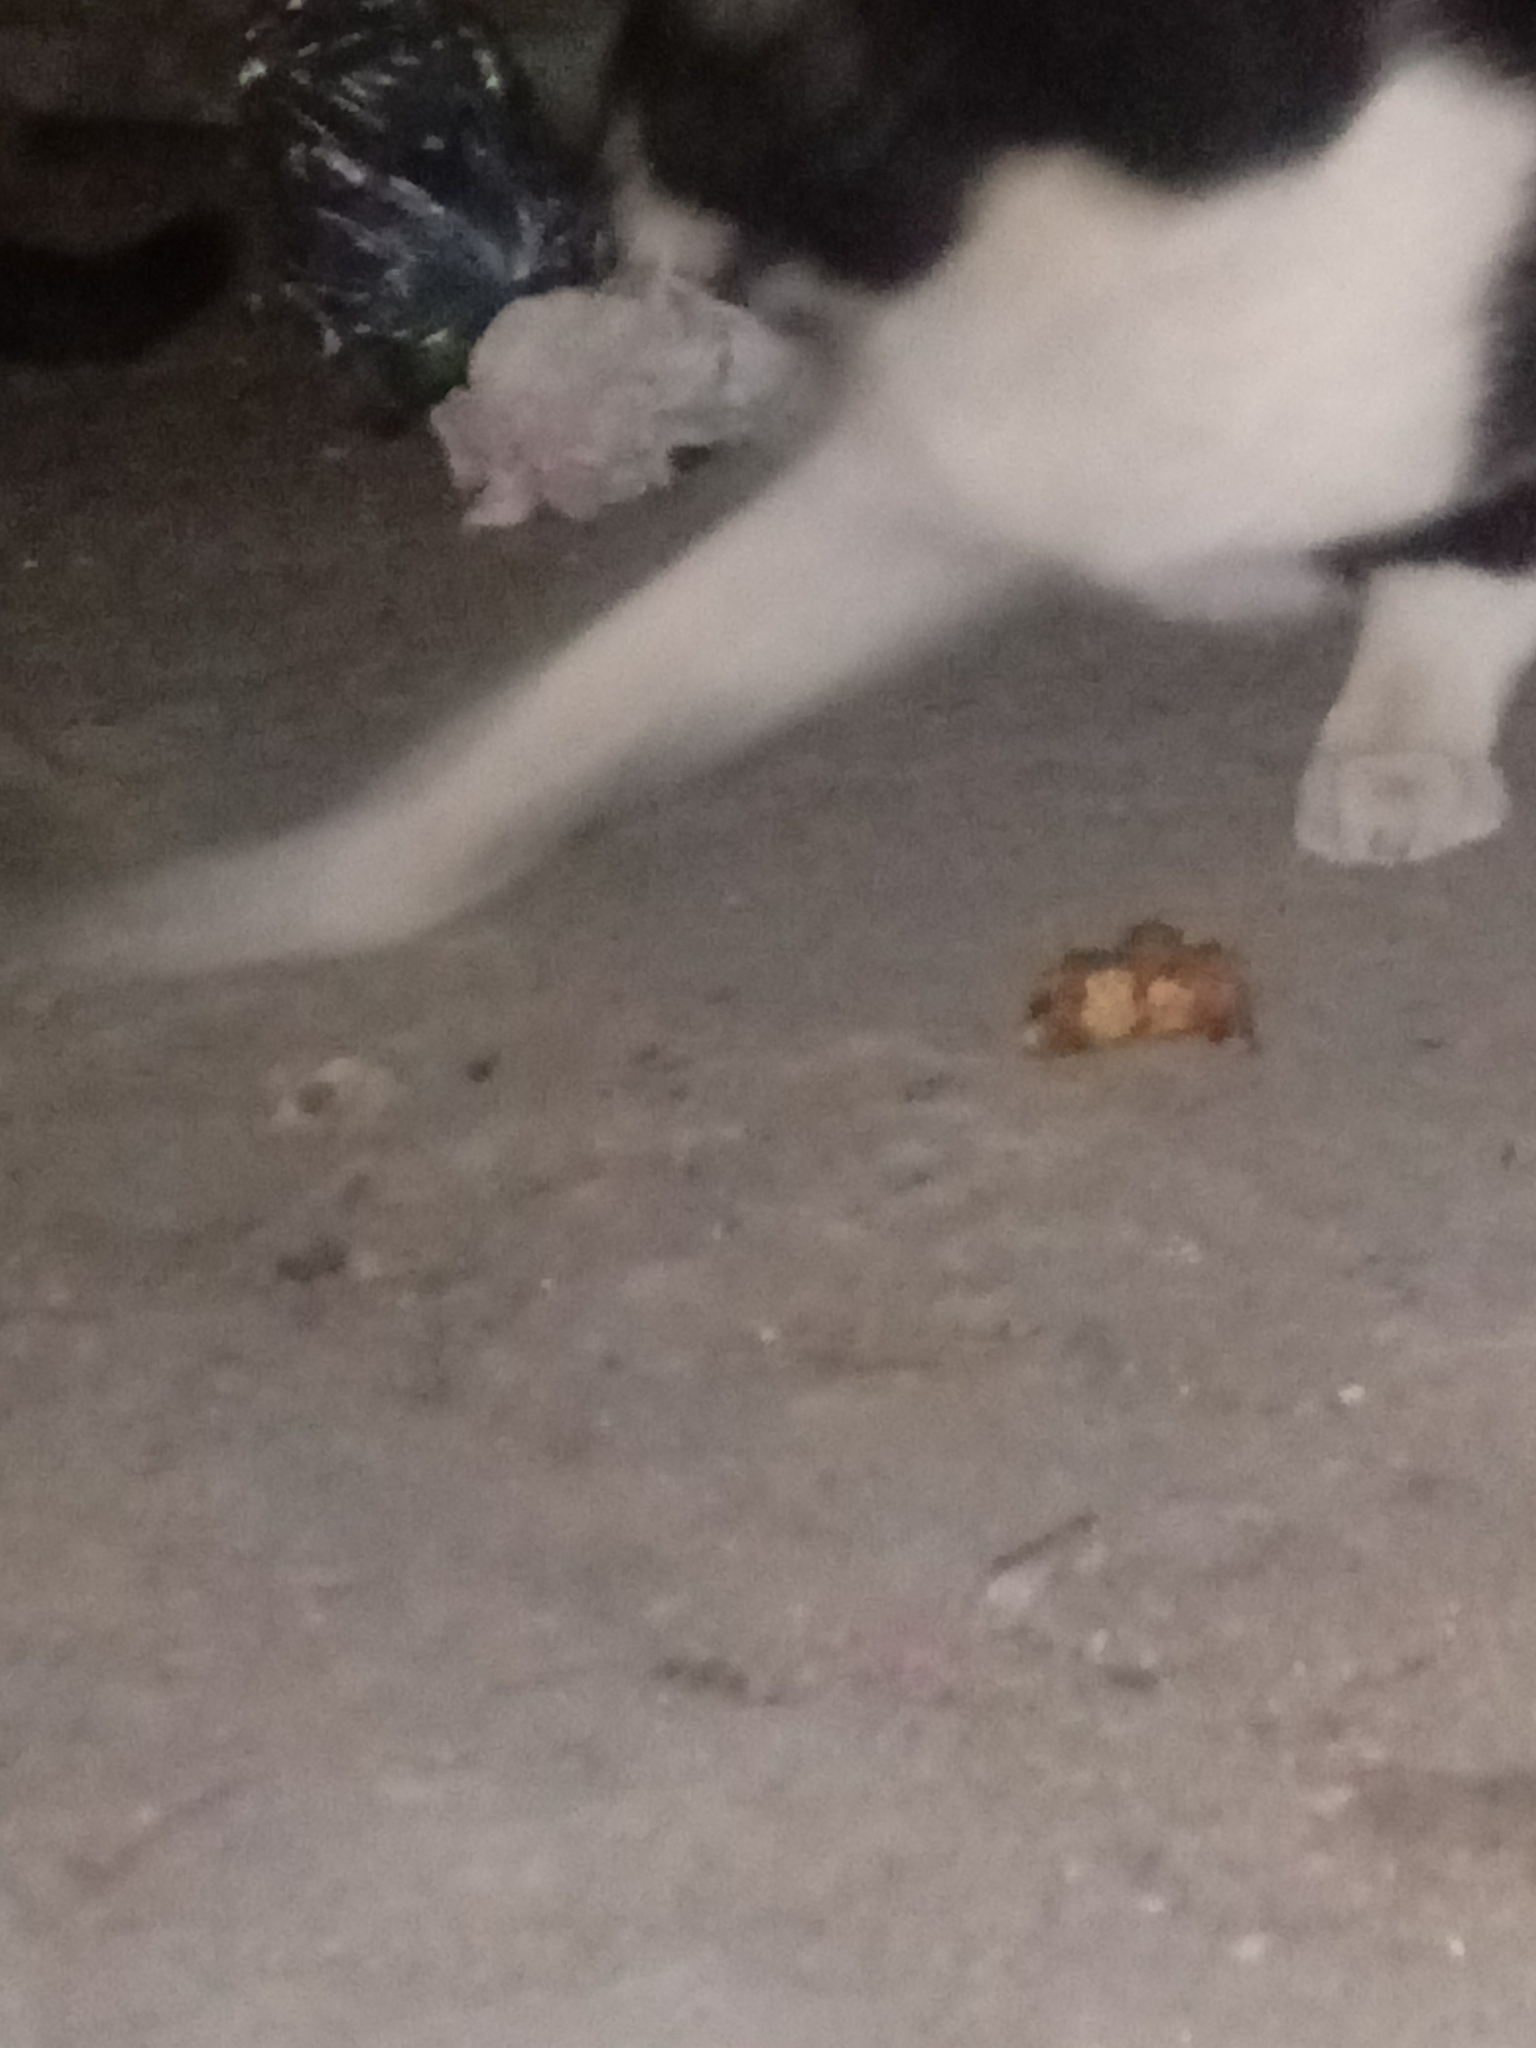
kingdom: Animalia
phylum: Chordata
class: Mammalia
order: Carnivora
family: Felidae
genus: Felis
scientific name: Felis catus
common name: Domestic cat
